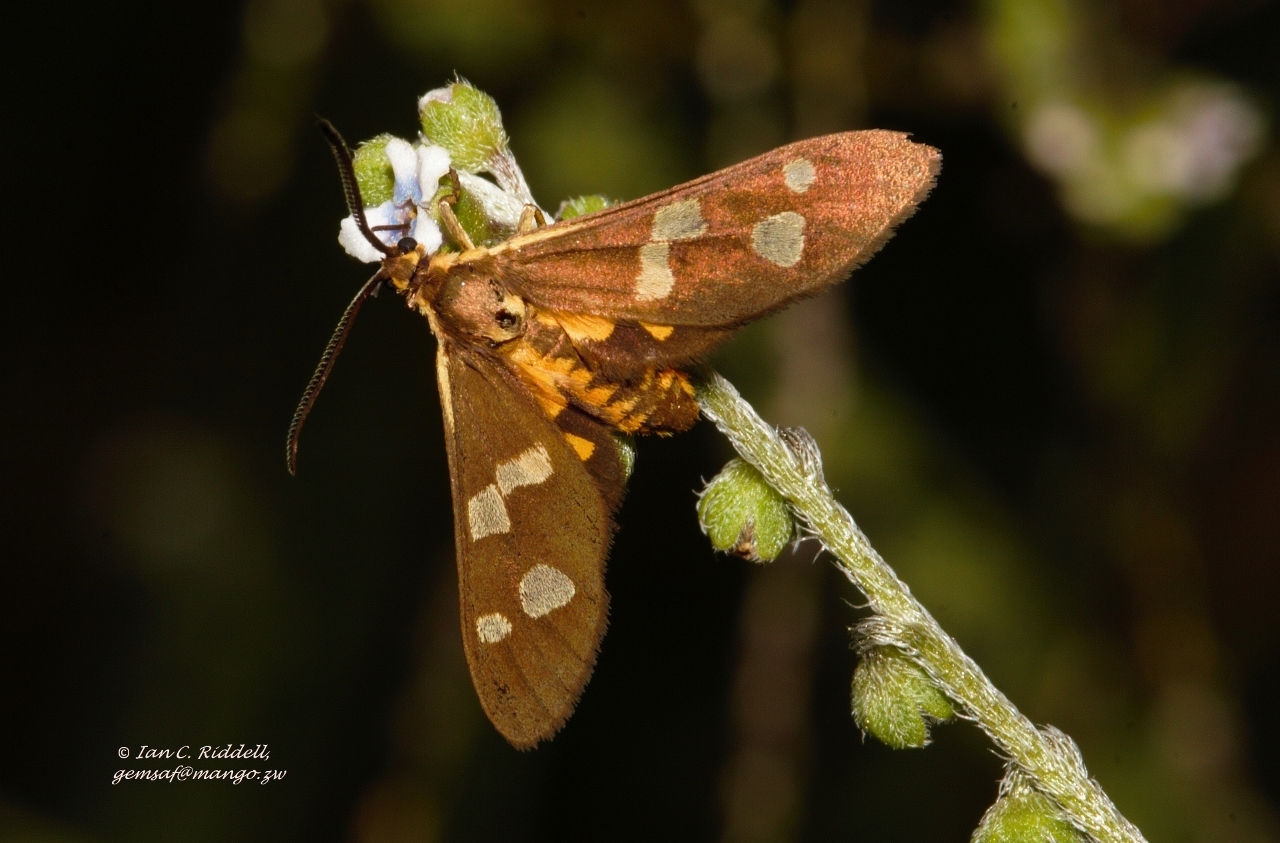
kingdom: Animalia
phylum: Arthropoda
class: Insecta
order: Lepidoptera
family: Erebidae
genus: Pseudonaclia
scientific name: Pseudonaclia puella
